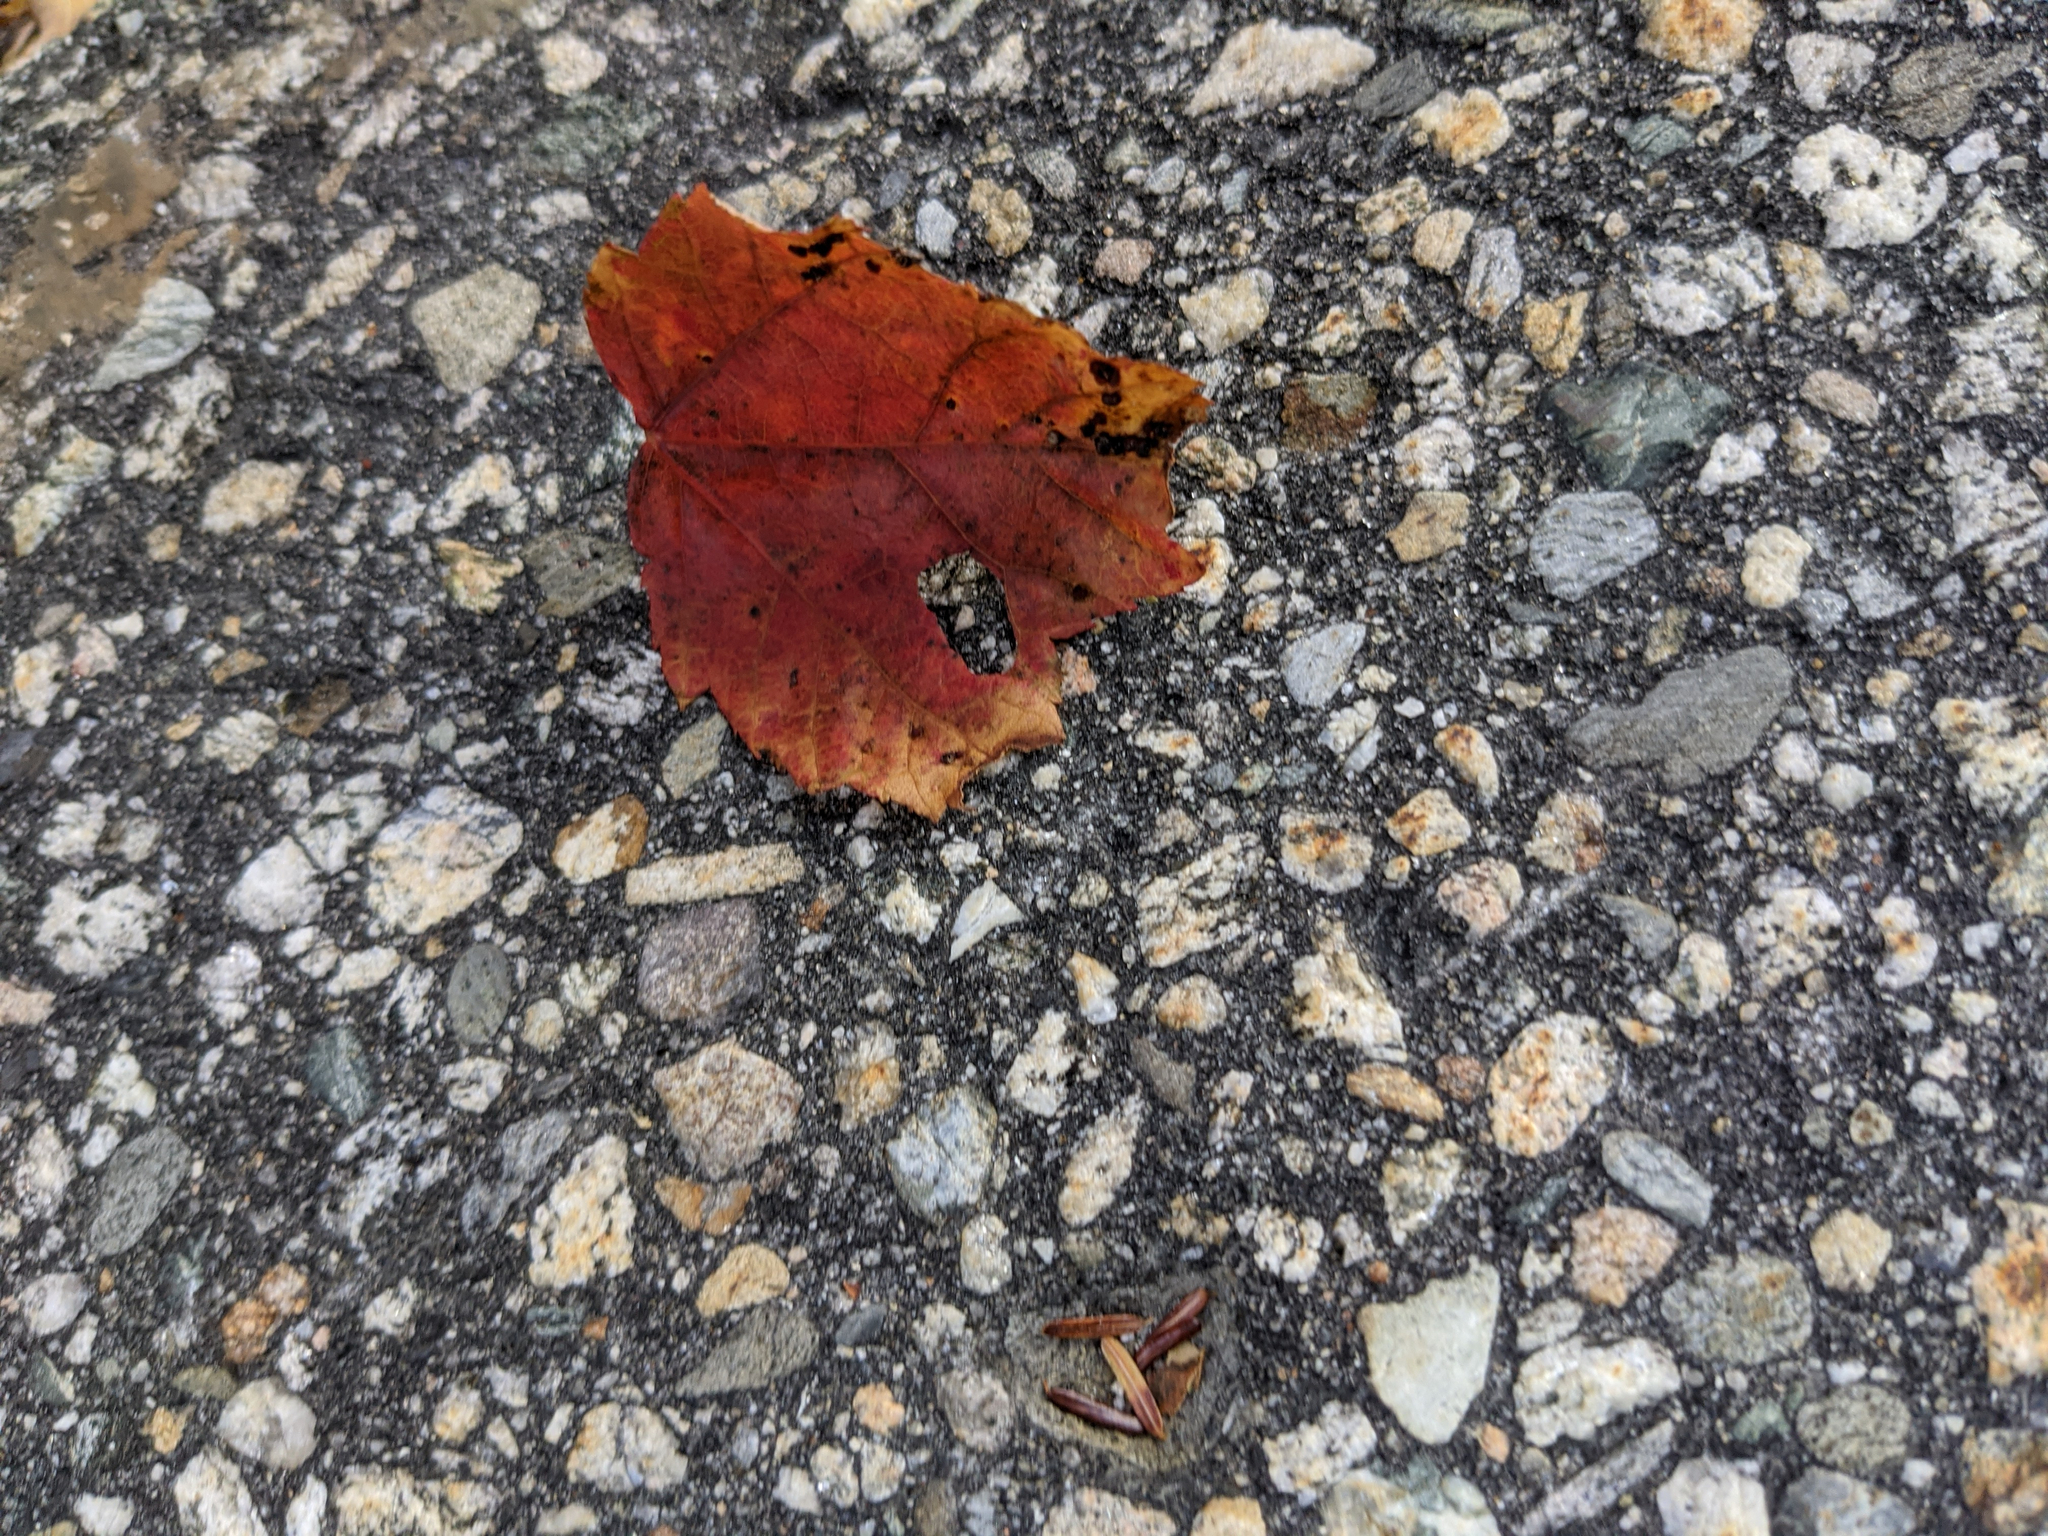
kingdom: Plantae
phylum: Tracheophyta
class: Magnoliopsida
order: Sapindales
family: Sapindaceae
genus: Acer
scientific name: Acer rubrum
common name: Red maple
